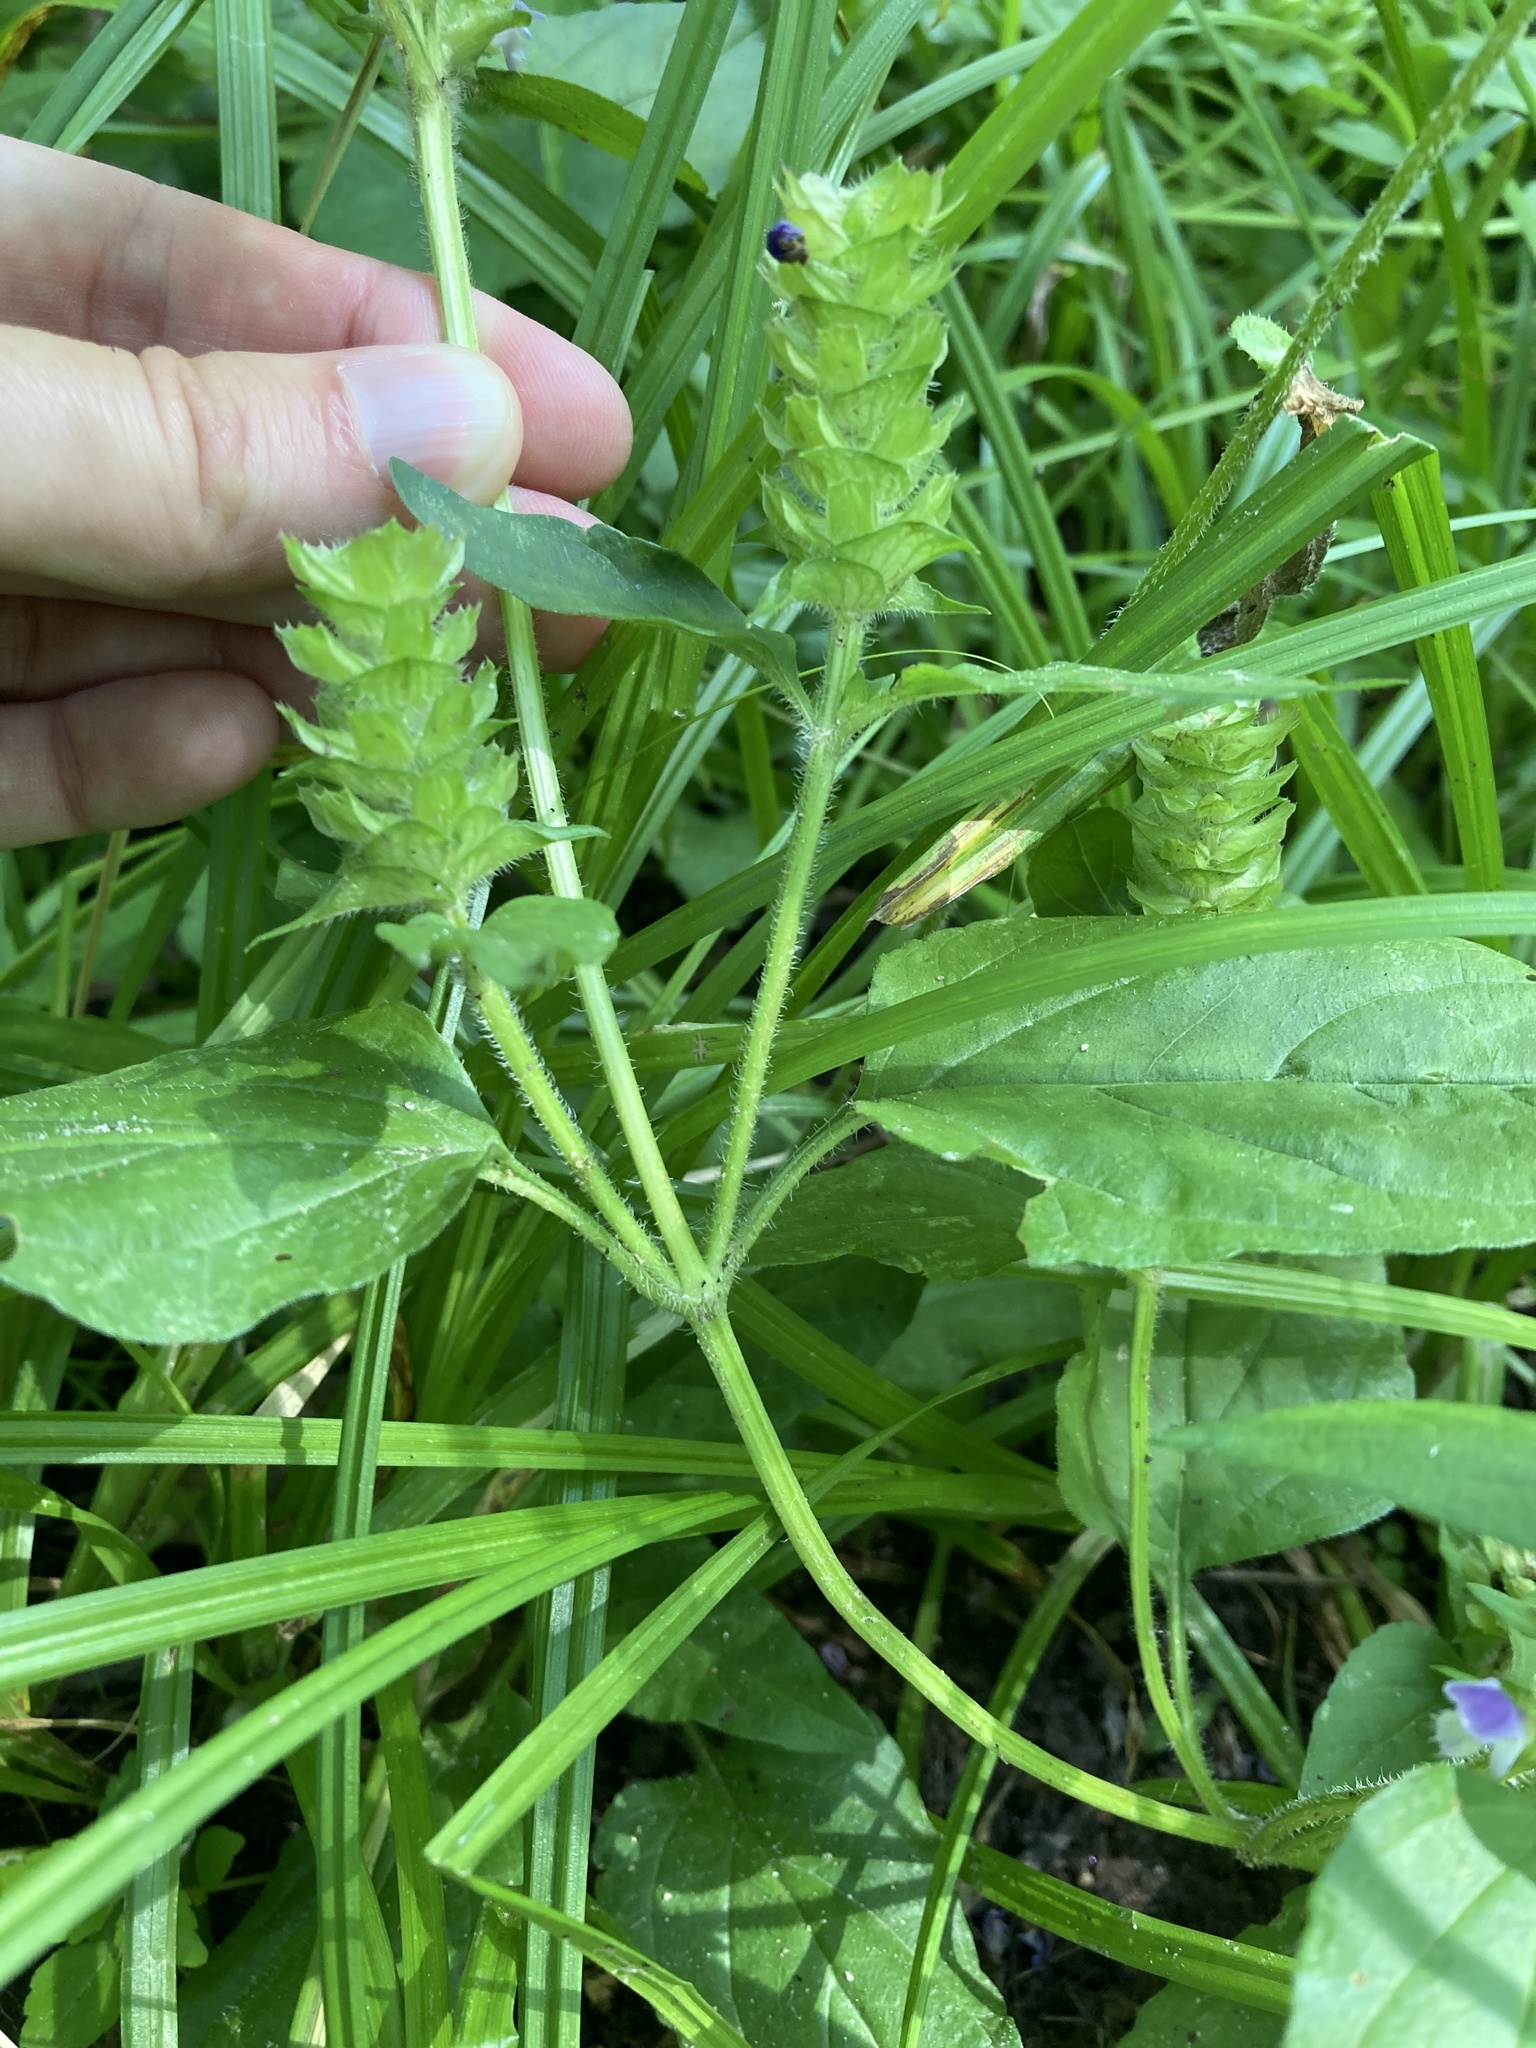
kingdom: Plantae
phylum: Tracheophyta
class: Magnoliopsida
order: Lamiales
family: Lamiaceae
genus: Prunella
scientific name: Prunella vulgaris
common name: Heal-all
